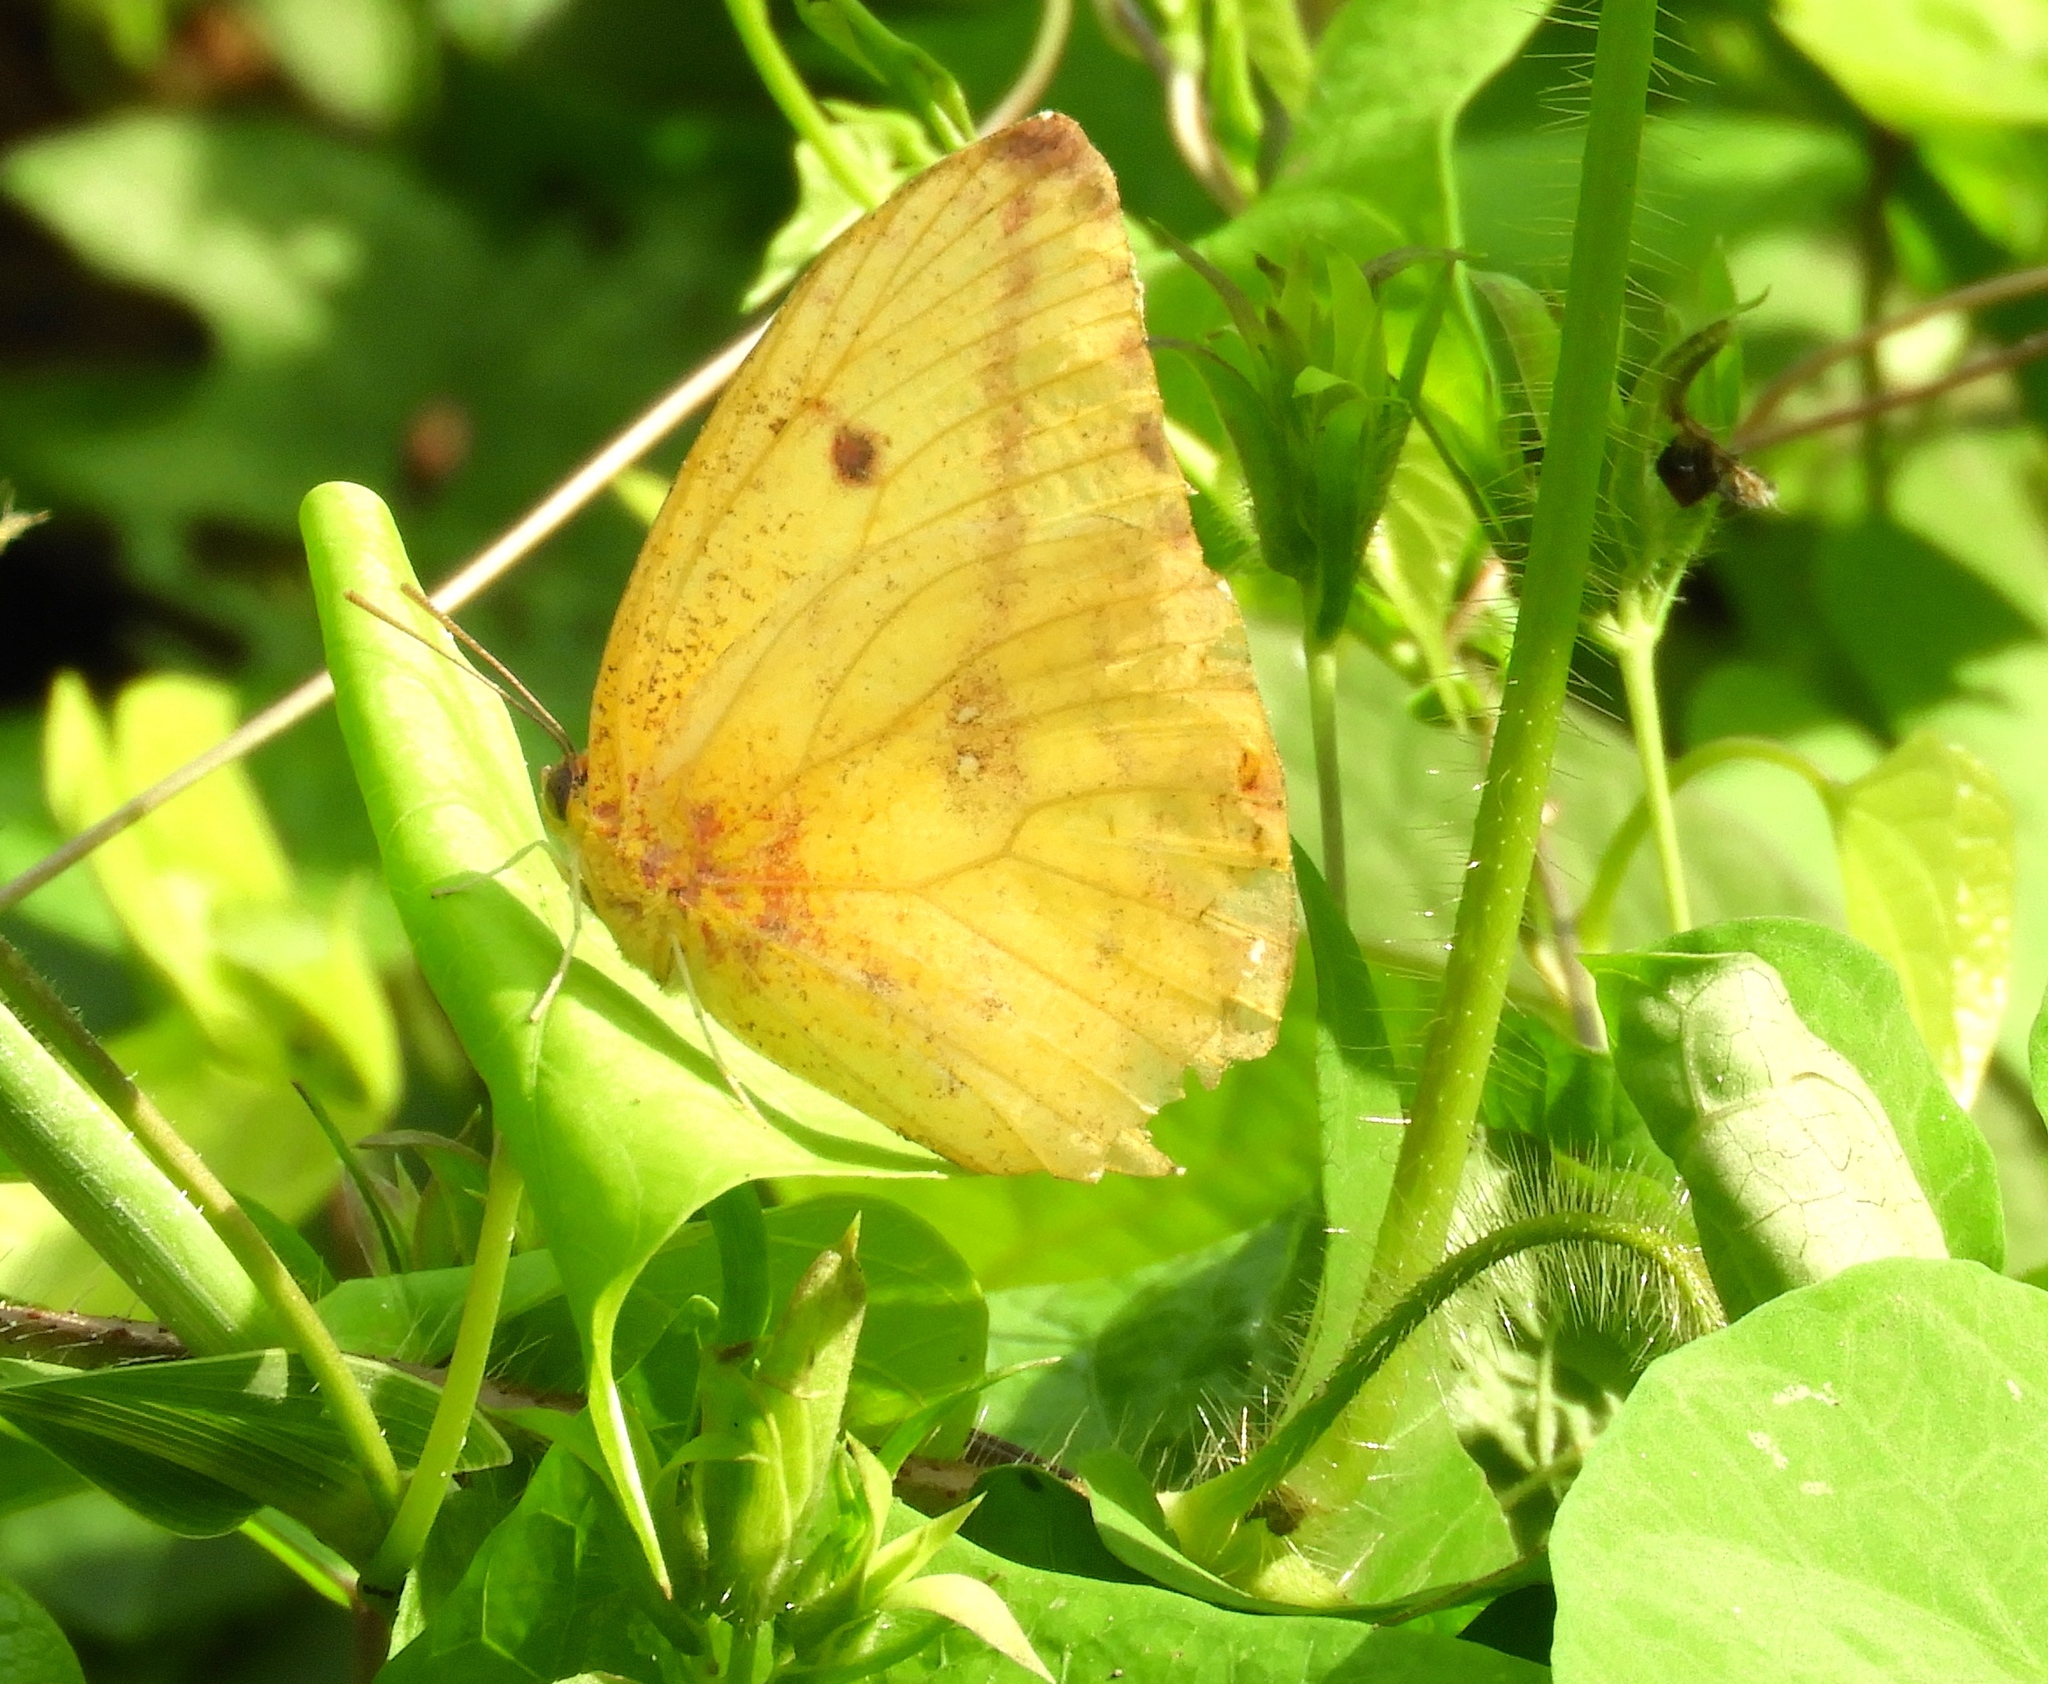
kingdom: Animalia
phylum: Arthropoda
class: Insecta
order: Lepidoptera
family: Pieridae
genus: Phoebis
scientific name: Phoebis agarithe
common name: Large orange sulphur
